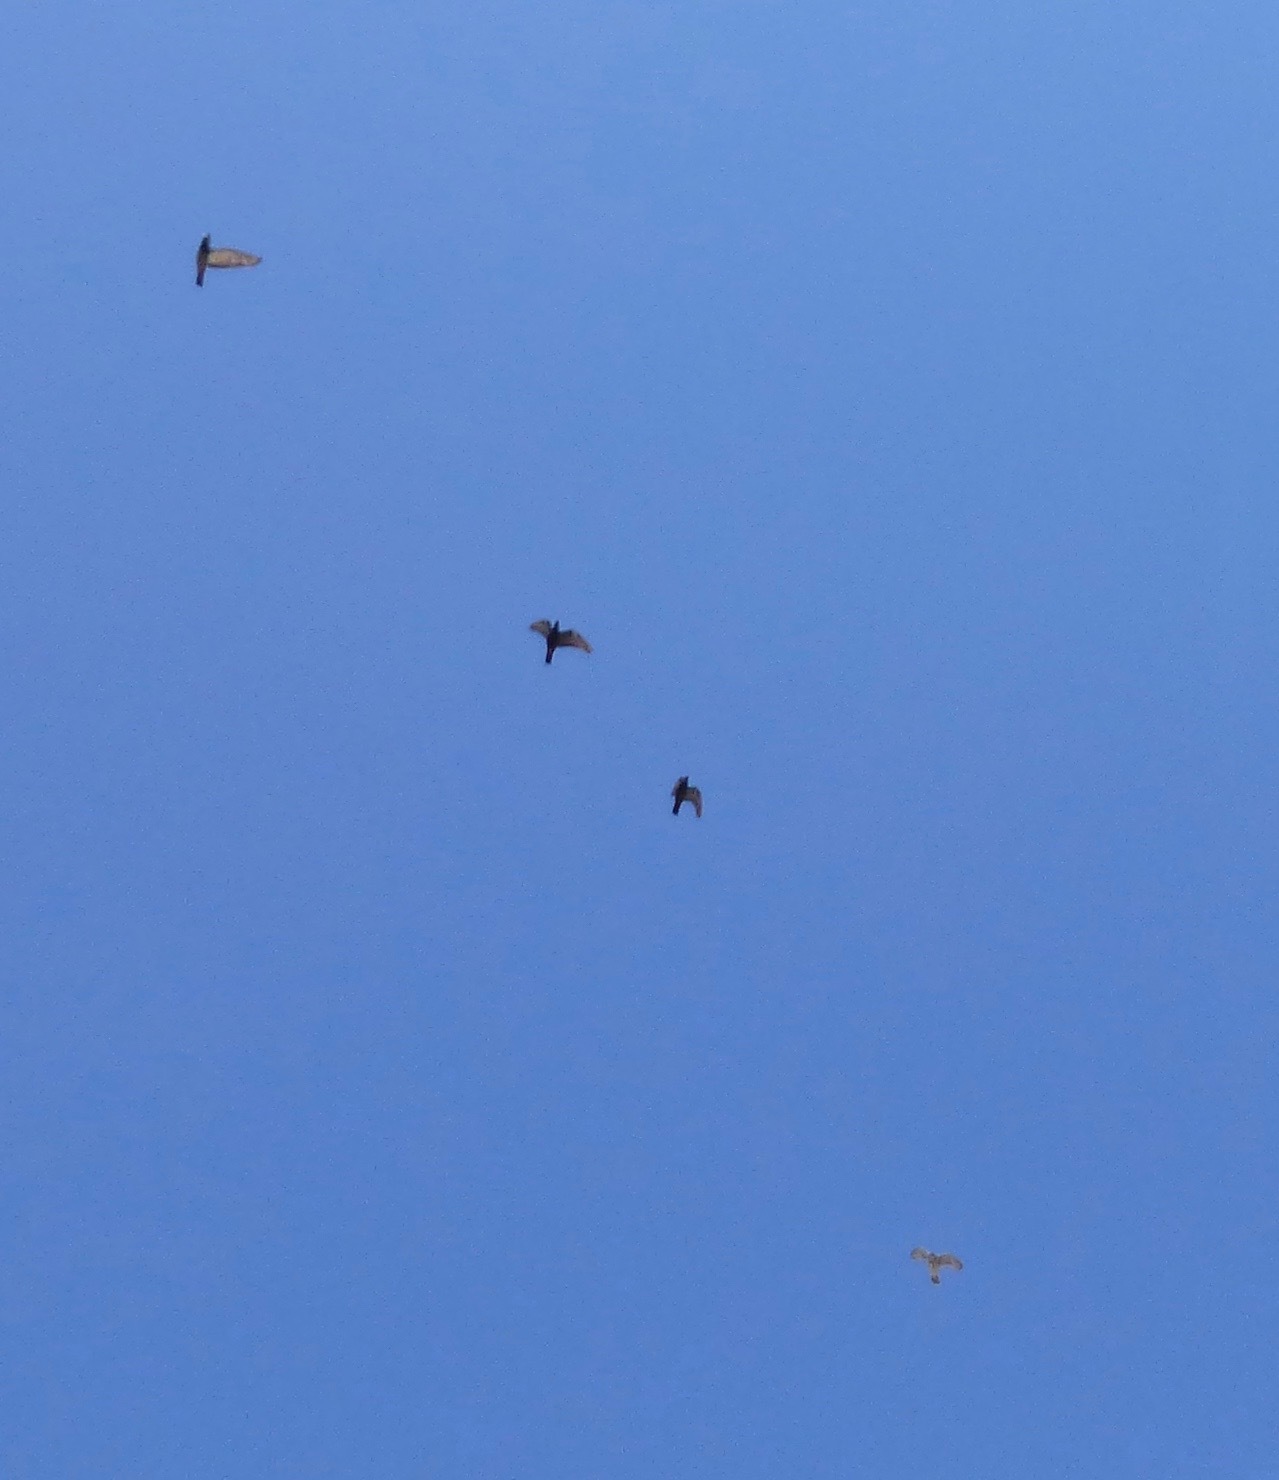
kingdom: Animalia
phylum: Chordata
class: Aves
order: Accipitriformes
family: Accipitridae
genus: Accipiter
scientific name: Accipiter cooperii
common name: Cooper's hawk
